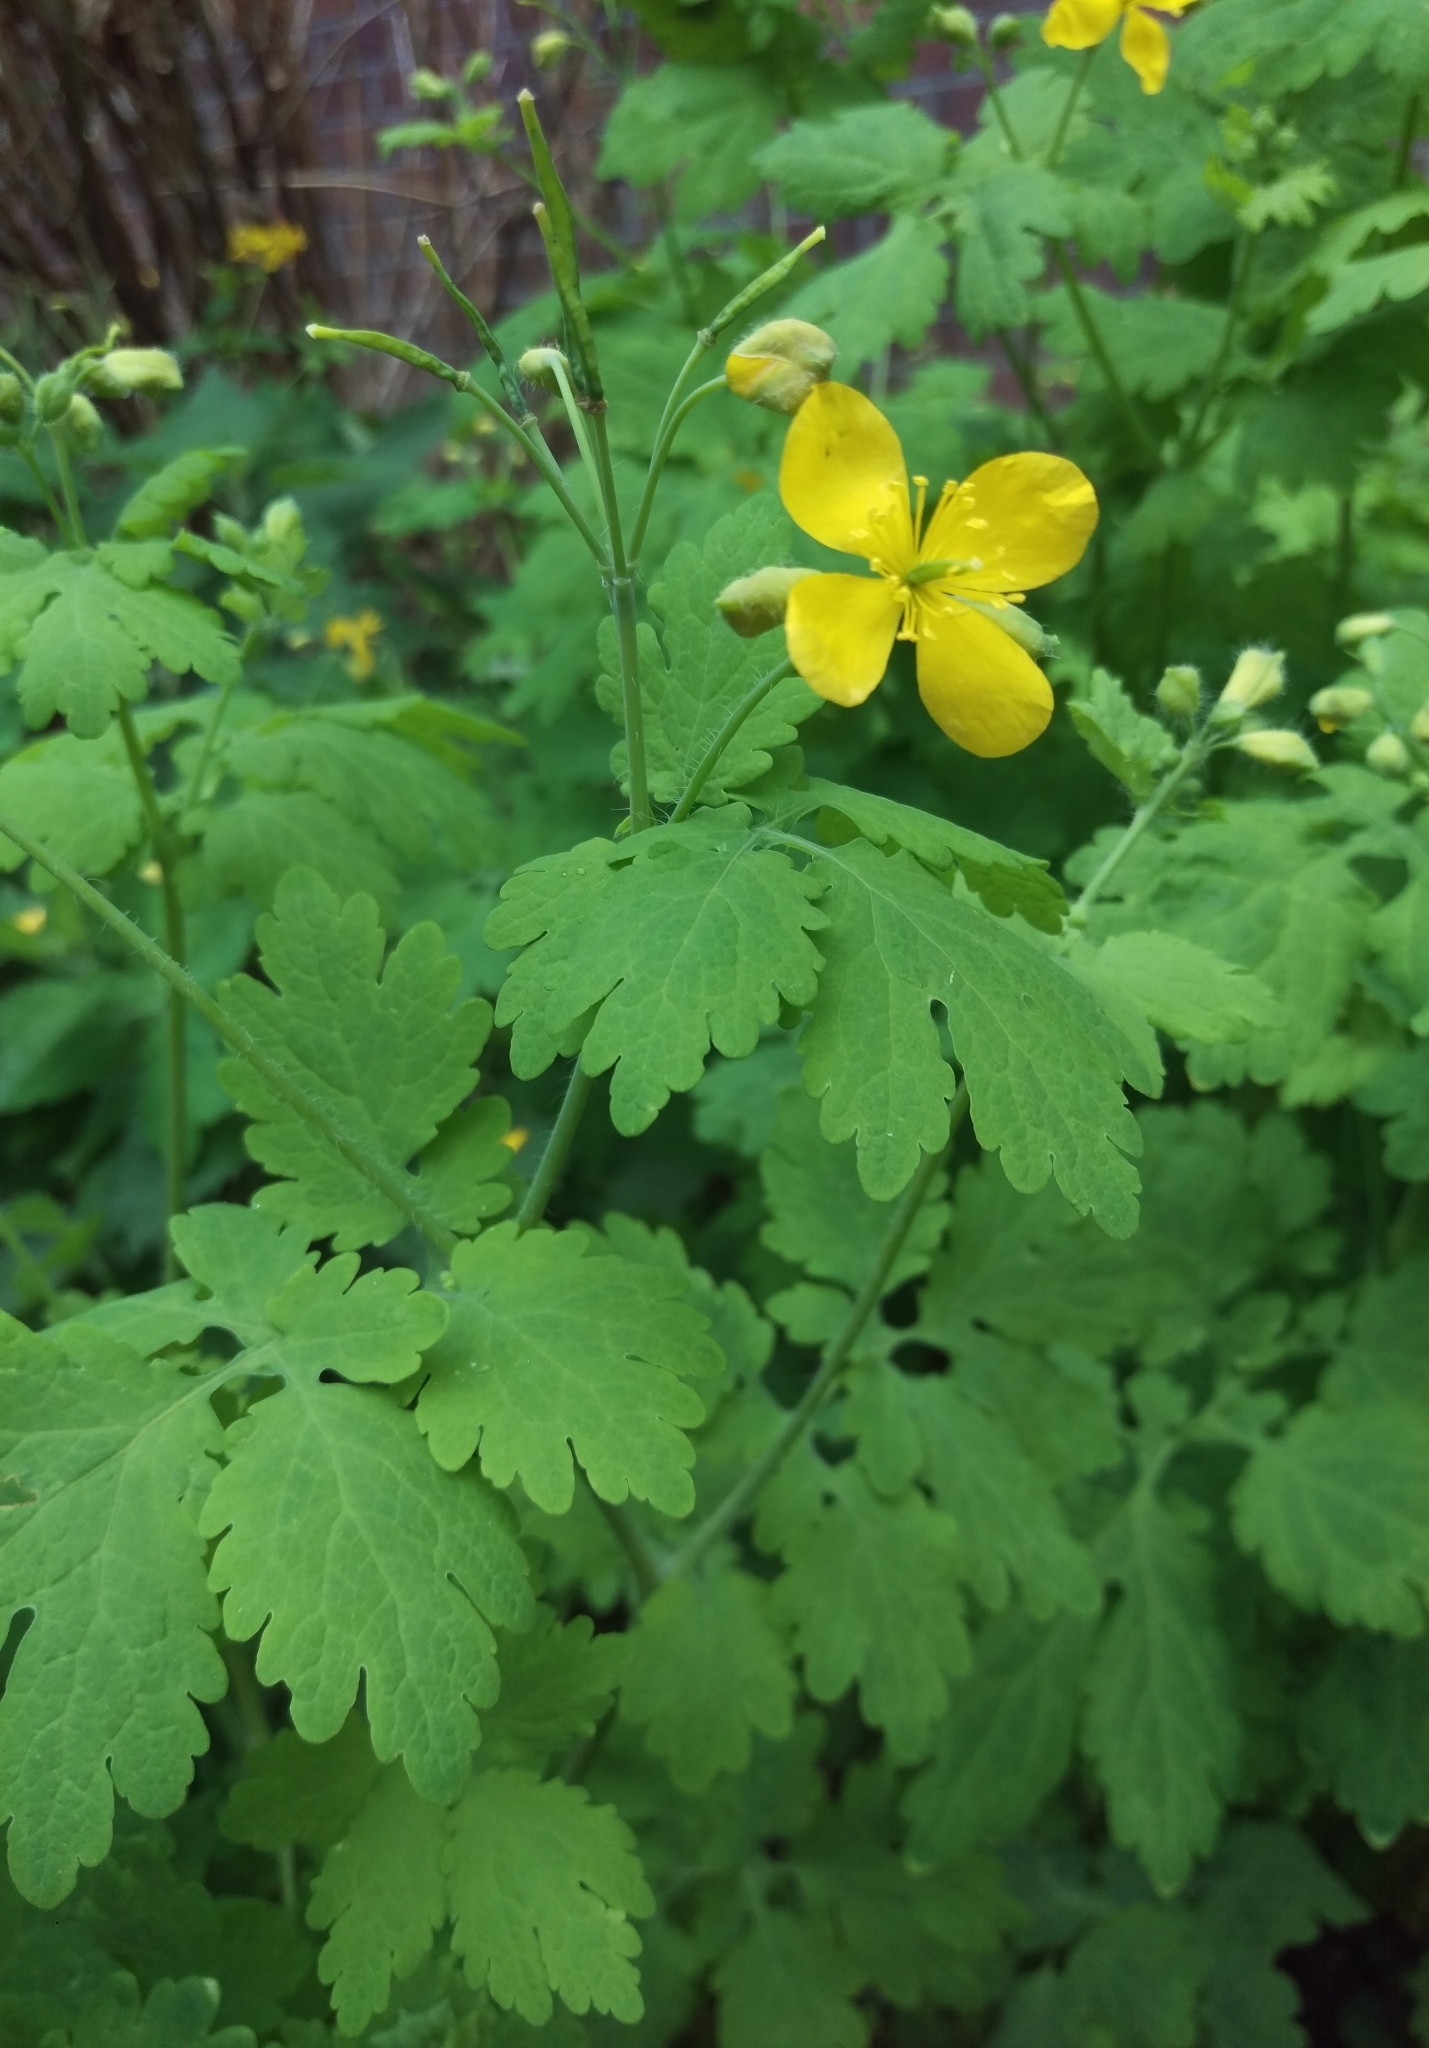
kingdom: Plantae
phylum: Tracheophyta
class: Magnoliopsida
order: Ranunculales
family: Papaveraceae
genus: Chelidonium
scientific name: Chelidonium majus
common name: Greater celandine
